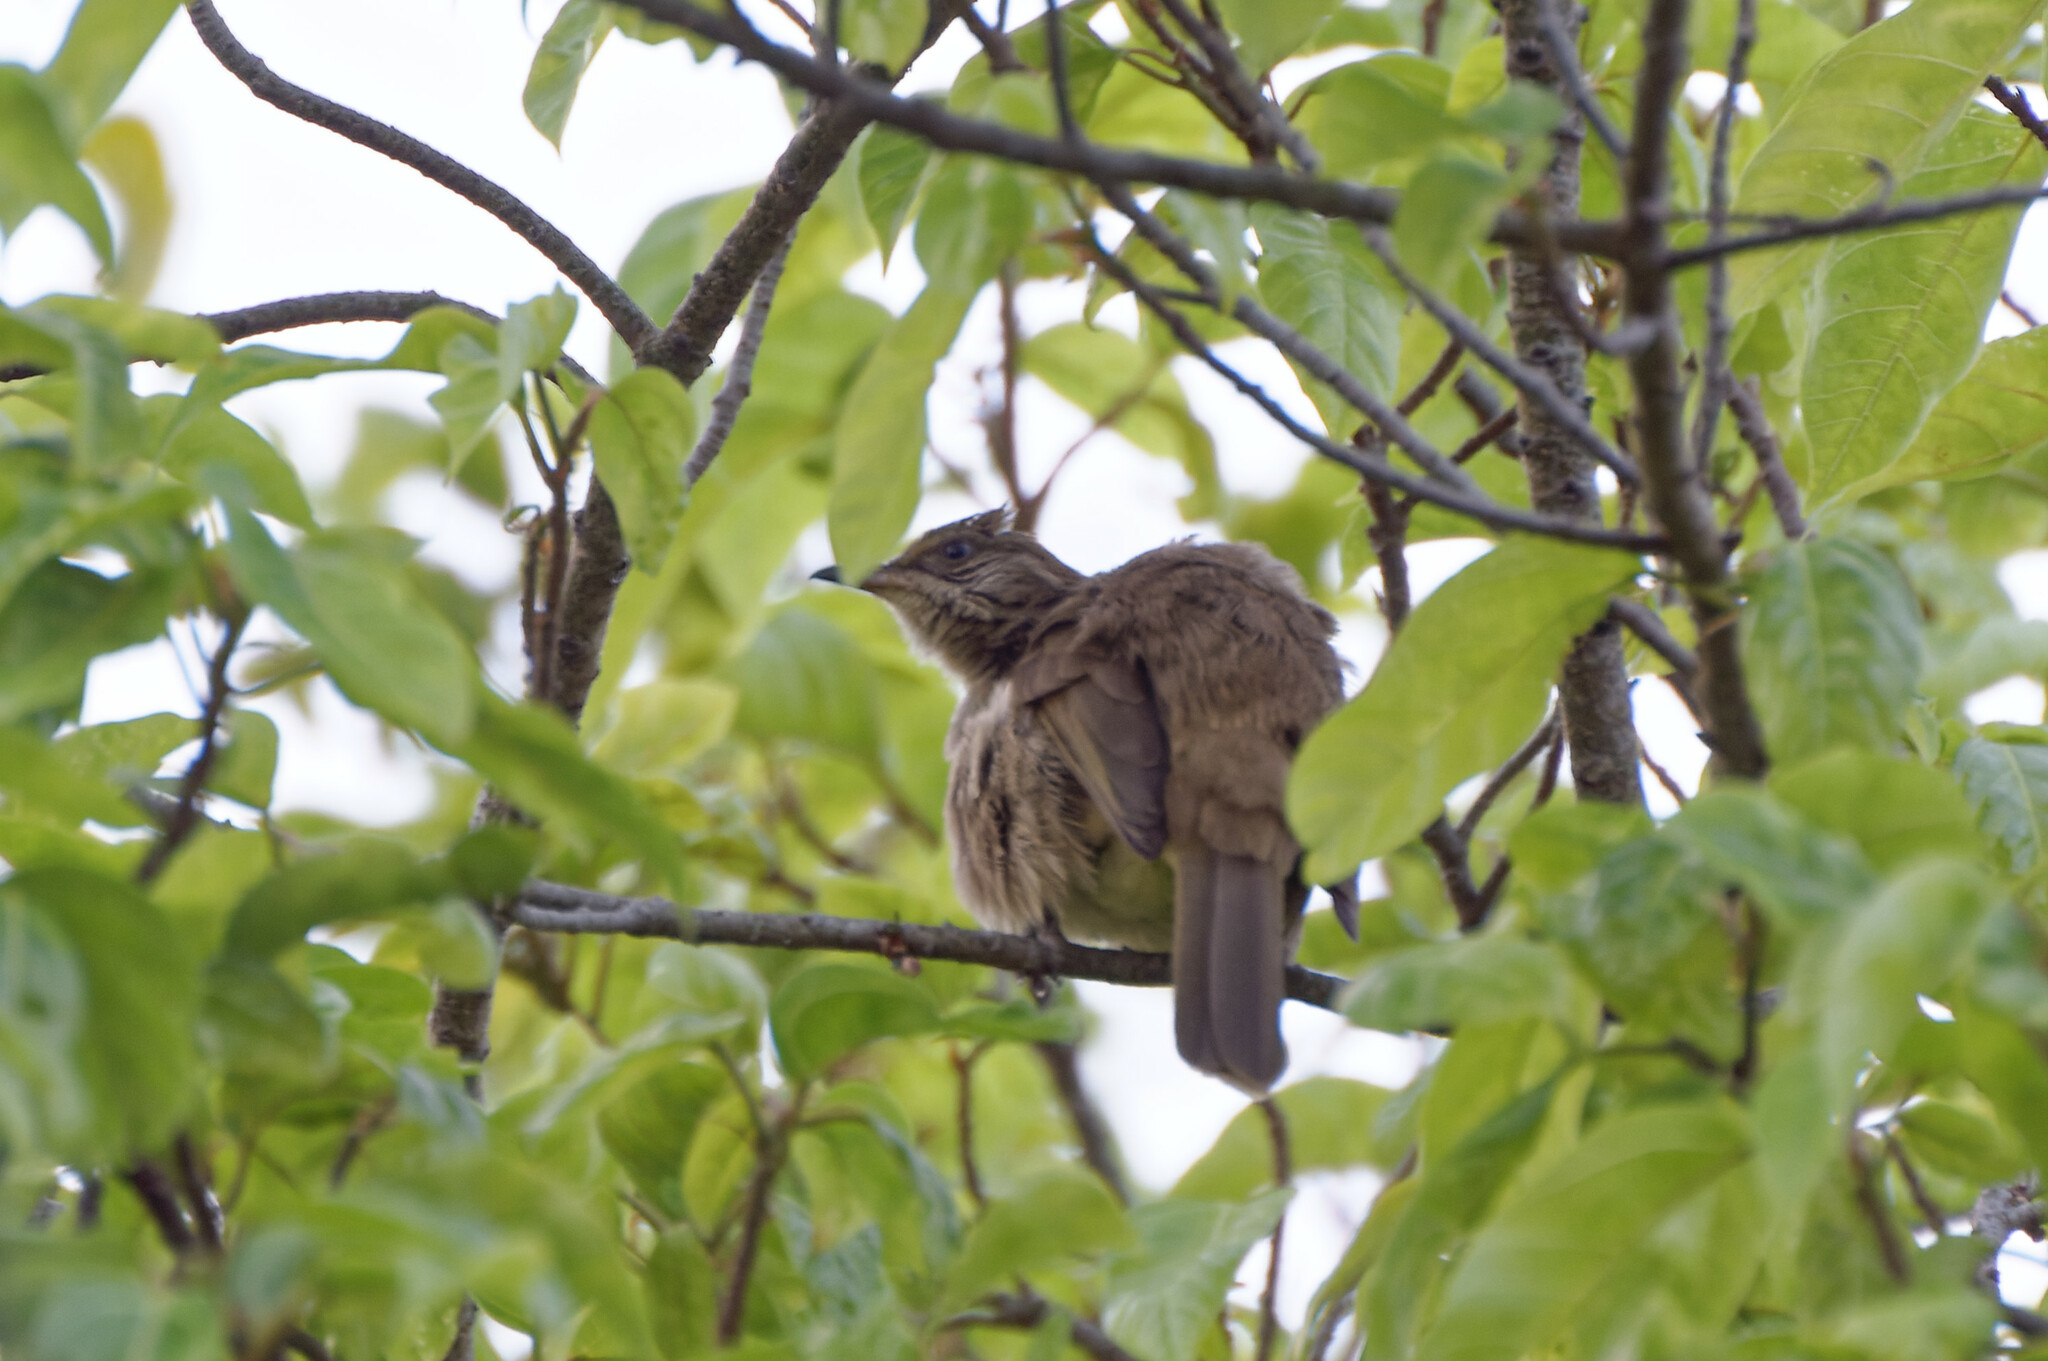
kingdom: Animalia
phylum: Chordata
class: Aves
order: Passeriformes
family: Pycnonotidae
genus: Pycnonotus
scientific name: Pycnonotus blanfordi
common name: Streak-eared bulbul
